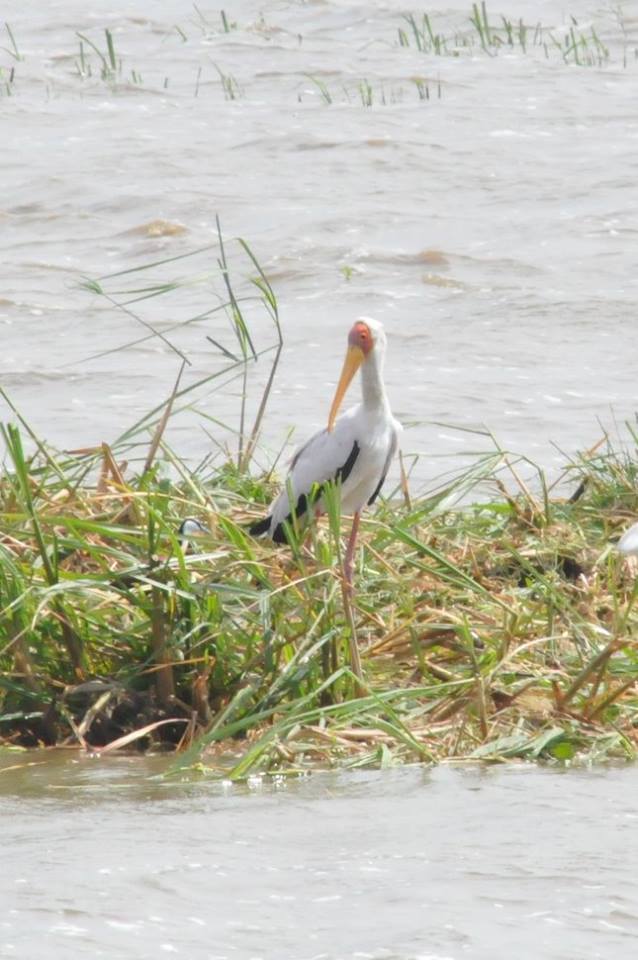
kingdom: Animalia
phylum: Chordata
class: Aves
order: Ciconiiformes
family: Ciconiidae
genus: Mycteria
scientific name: Mycteria ibis
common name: Yellow-billed stork
